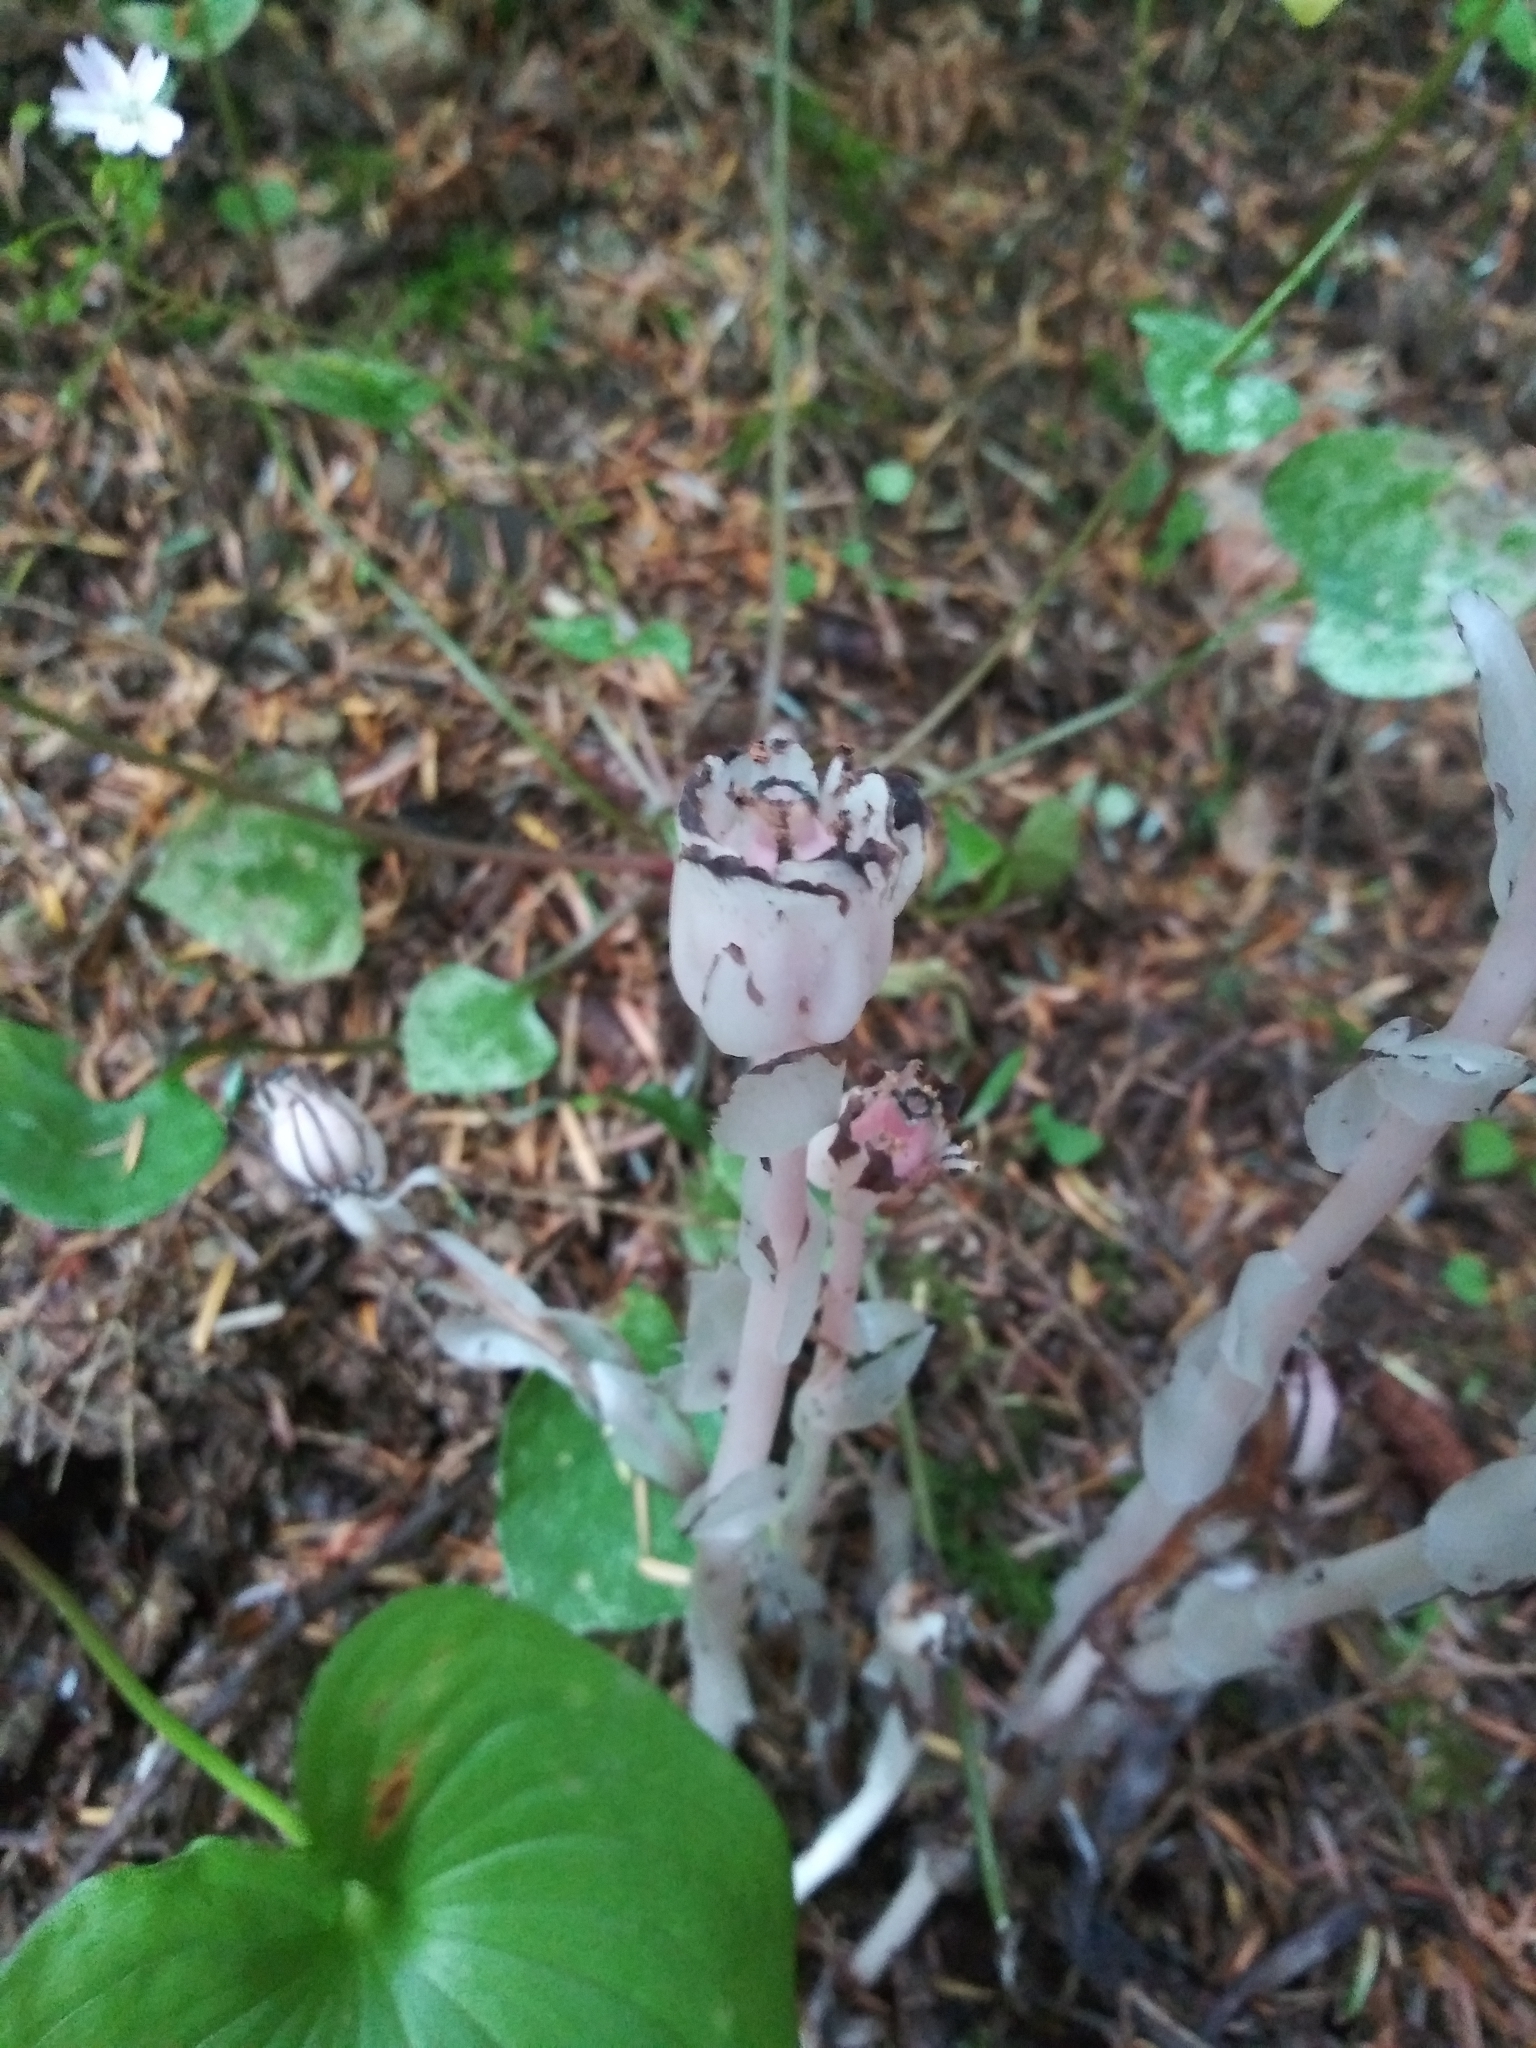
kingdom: Plantae
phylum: Tracheophyta
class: Magnoliopsida
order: Ericales
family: Ericaceae
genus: Monotropa
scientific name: Monotropa uniflora
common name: Convulsion root
